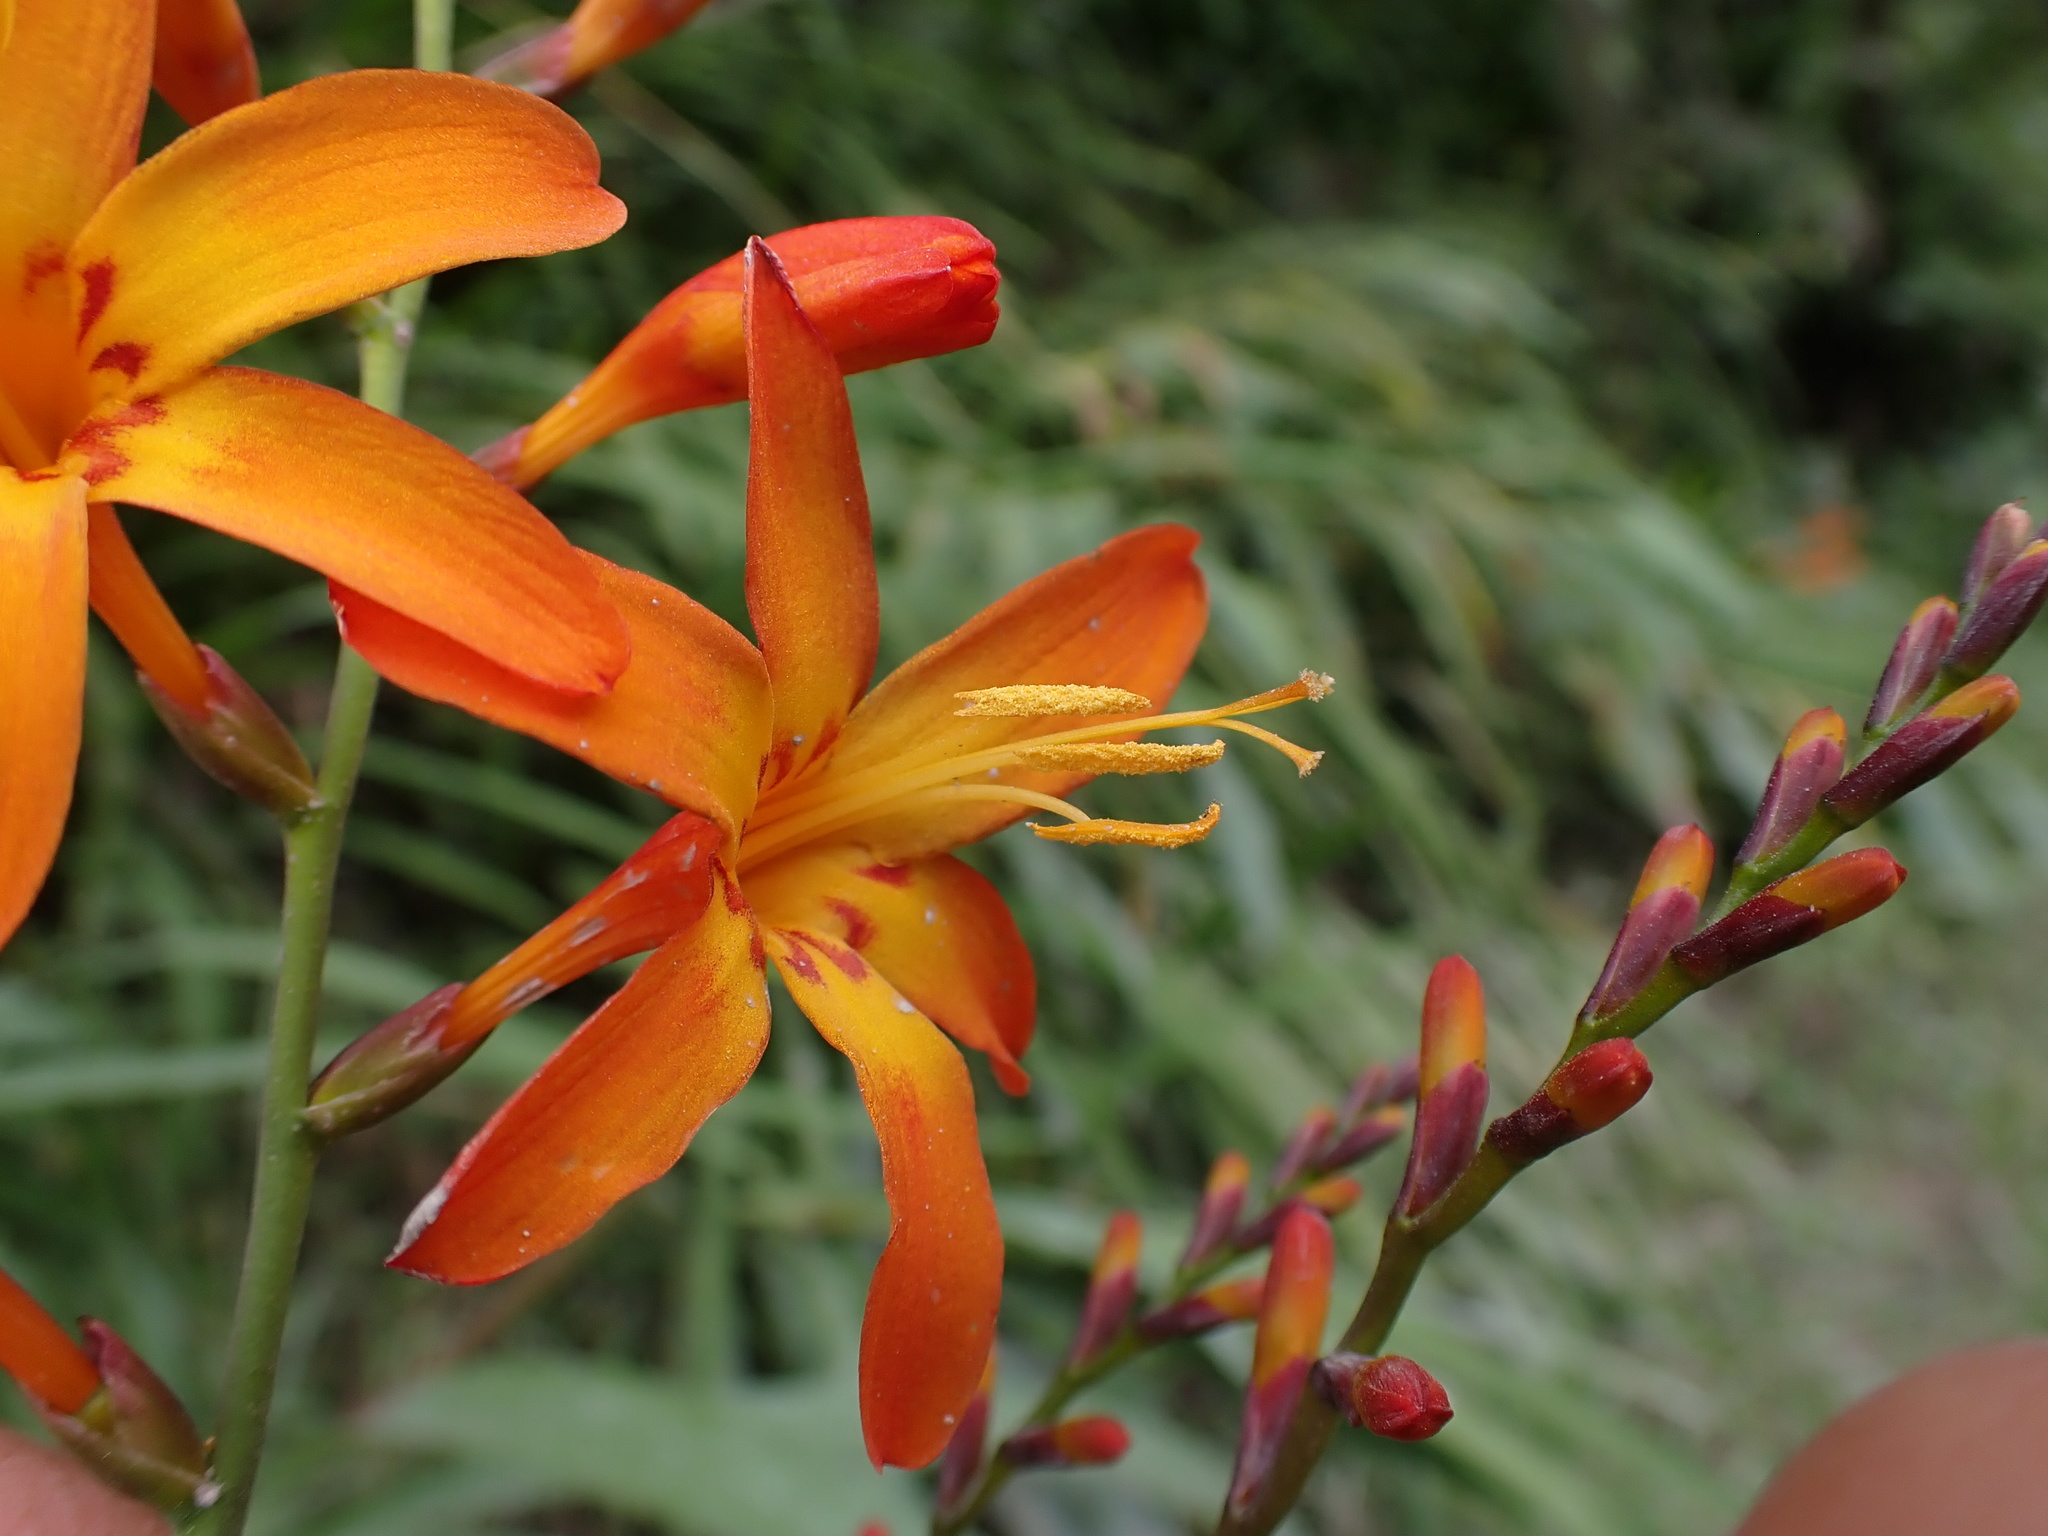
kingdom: Plantae
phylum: Tracheophyta
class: Liliopsida
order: Asparagales
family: Iridaceae
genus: Crocosmia
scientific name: Crocosmia crocosmiiflora
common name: Montbretia
